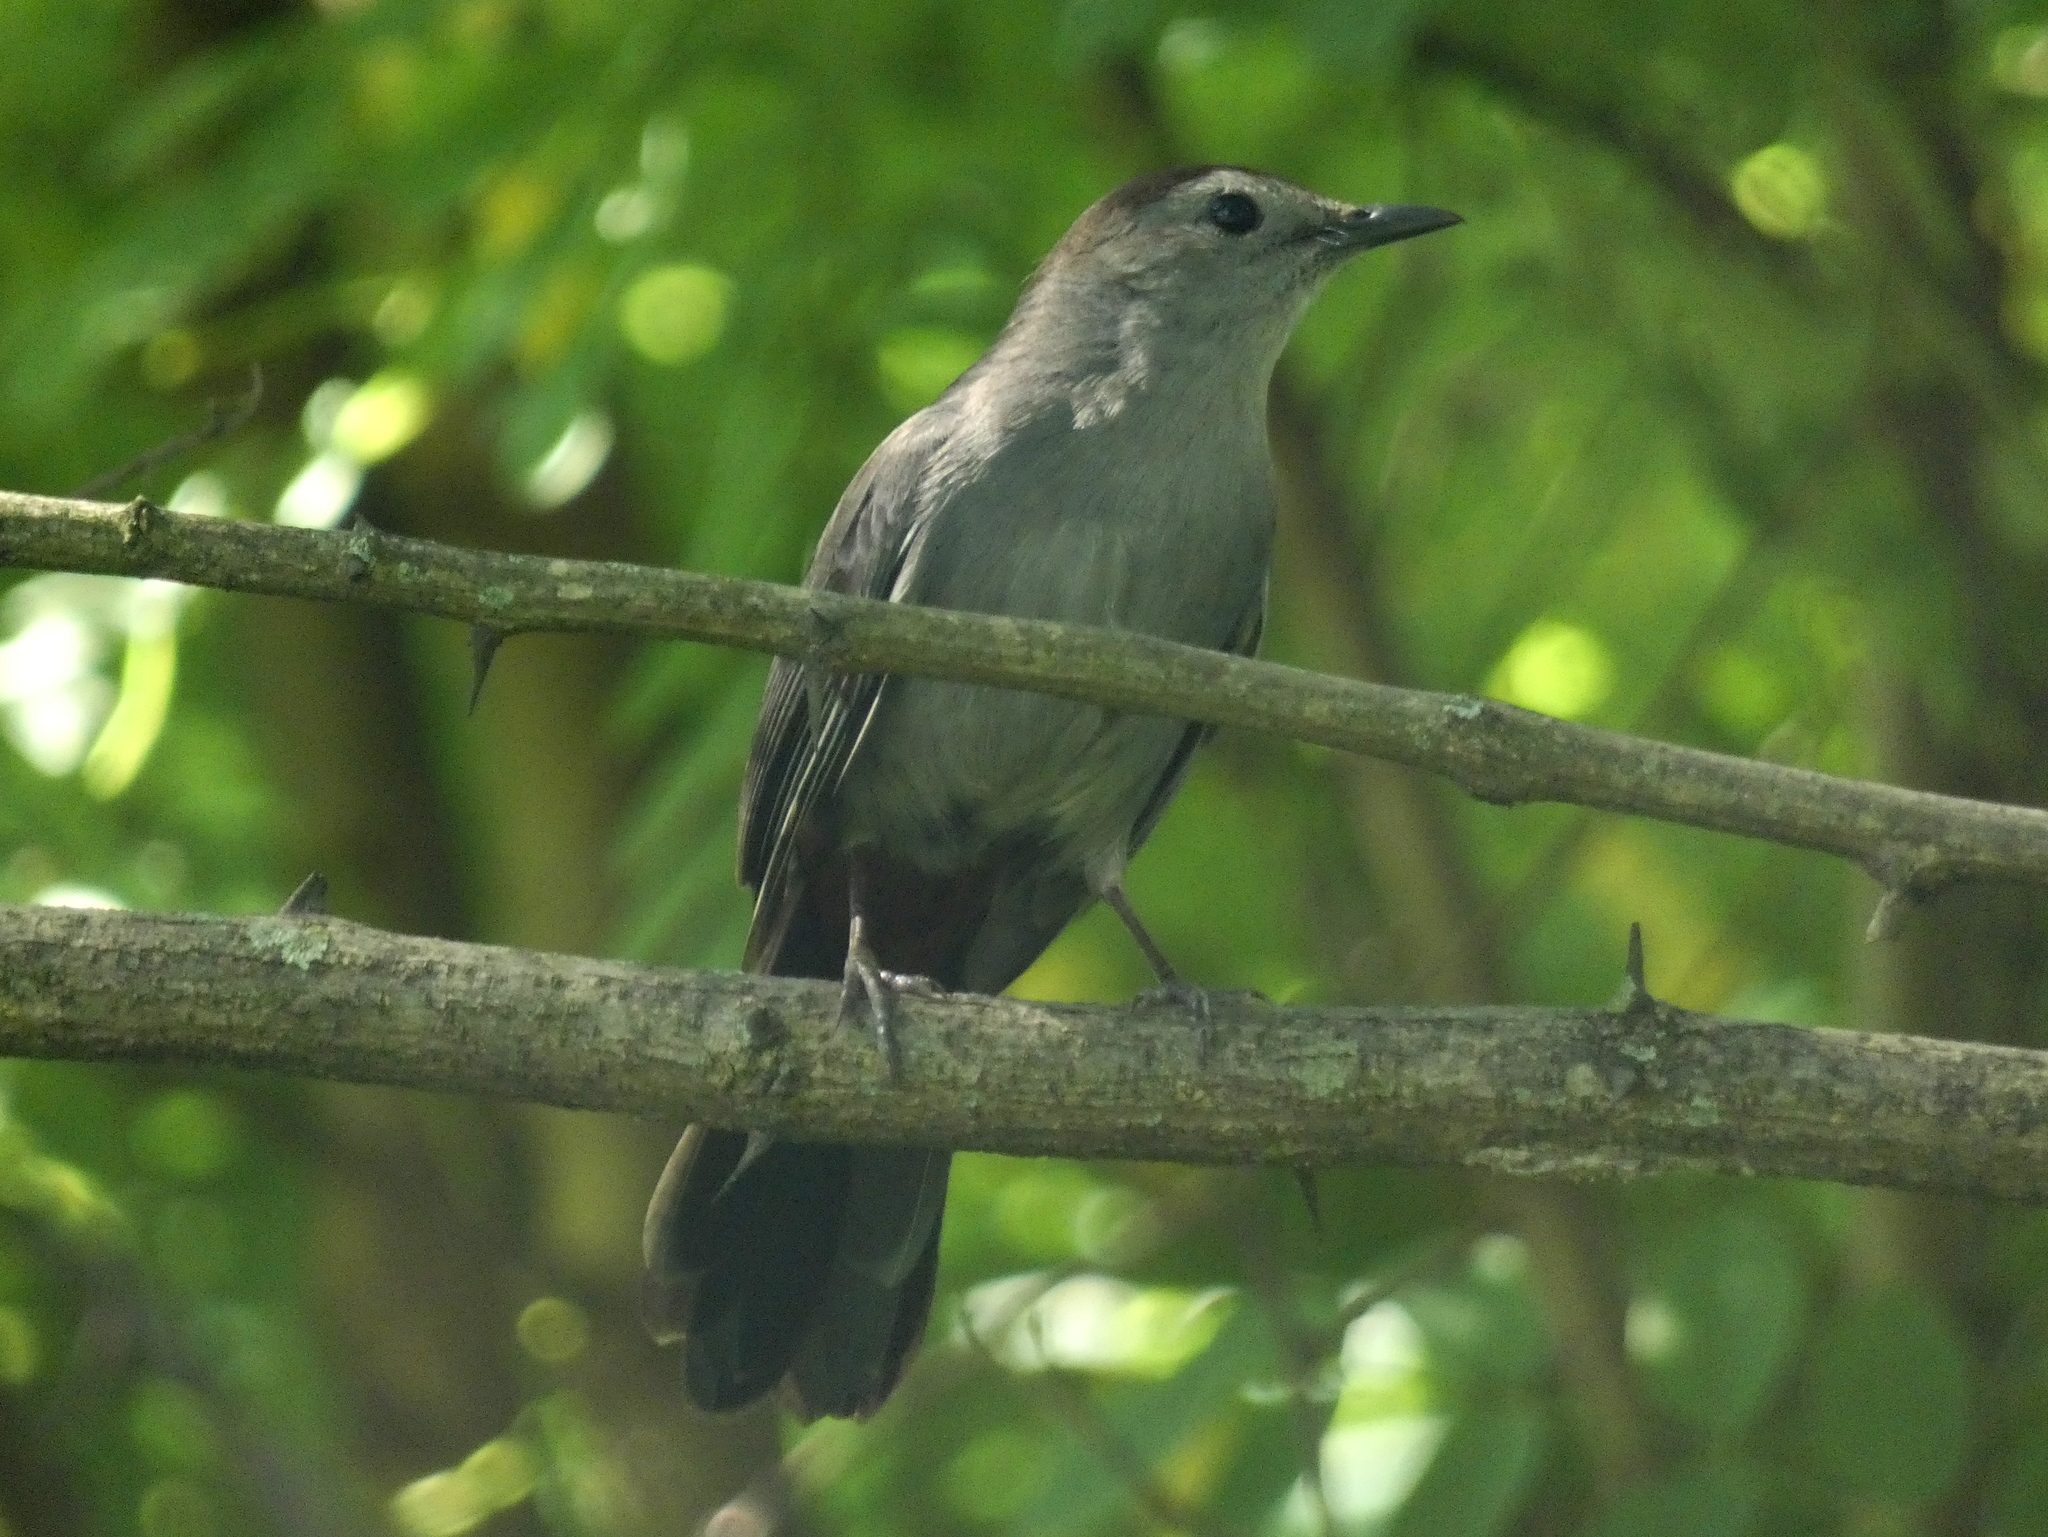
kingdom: Animalia
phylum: Chordata
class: Aves
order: Passeriformes
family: Mimidae
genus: Dumetella
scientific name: Dumetella carolinensis
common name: Gray catbird
